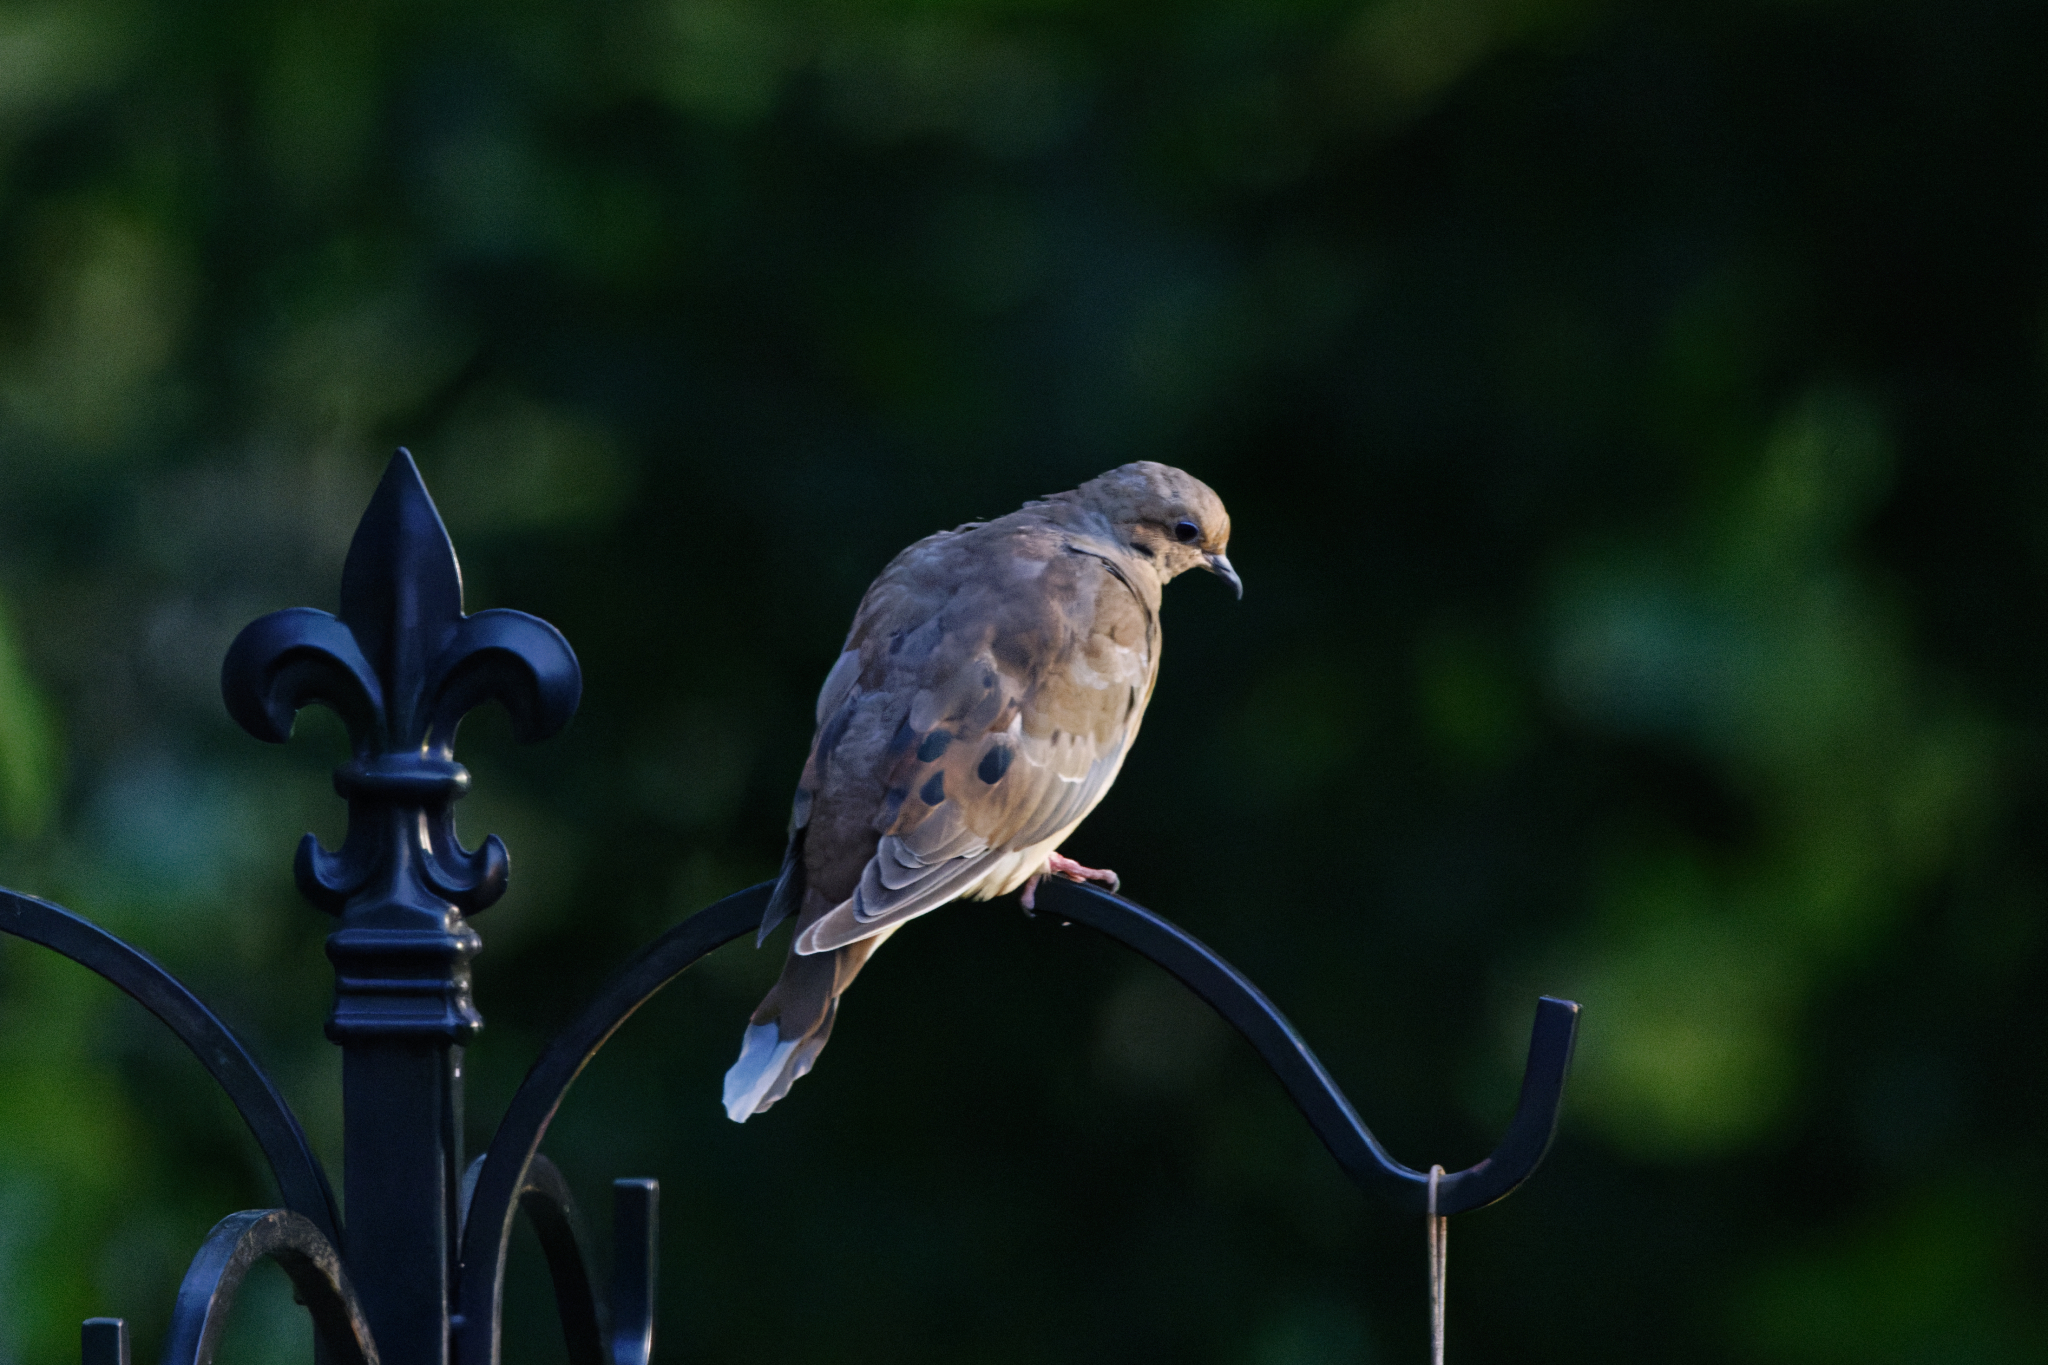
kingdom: Animalia
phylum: Chordata
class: Aves
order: Columbiformes
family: Columbidae
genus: Zenaida
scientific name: Zenaida macroura
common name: Mourning dove
